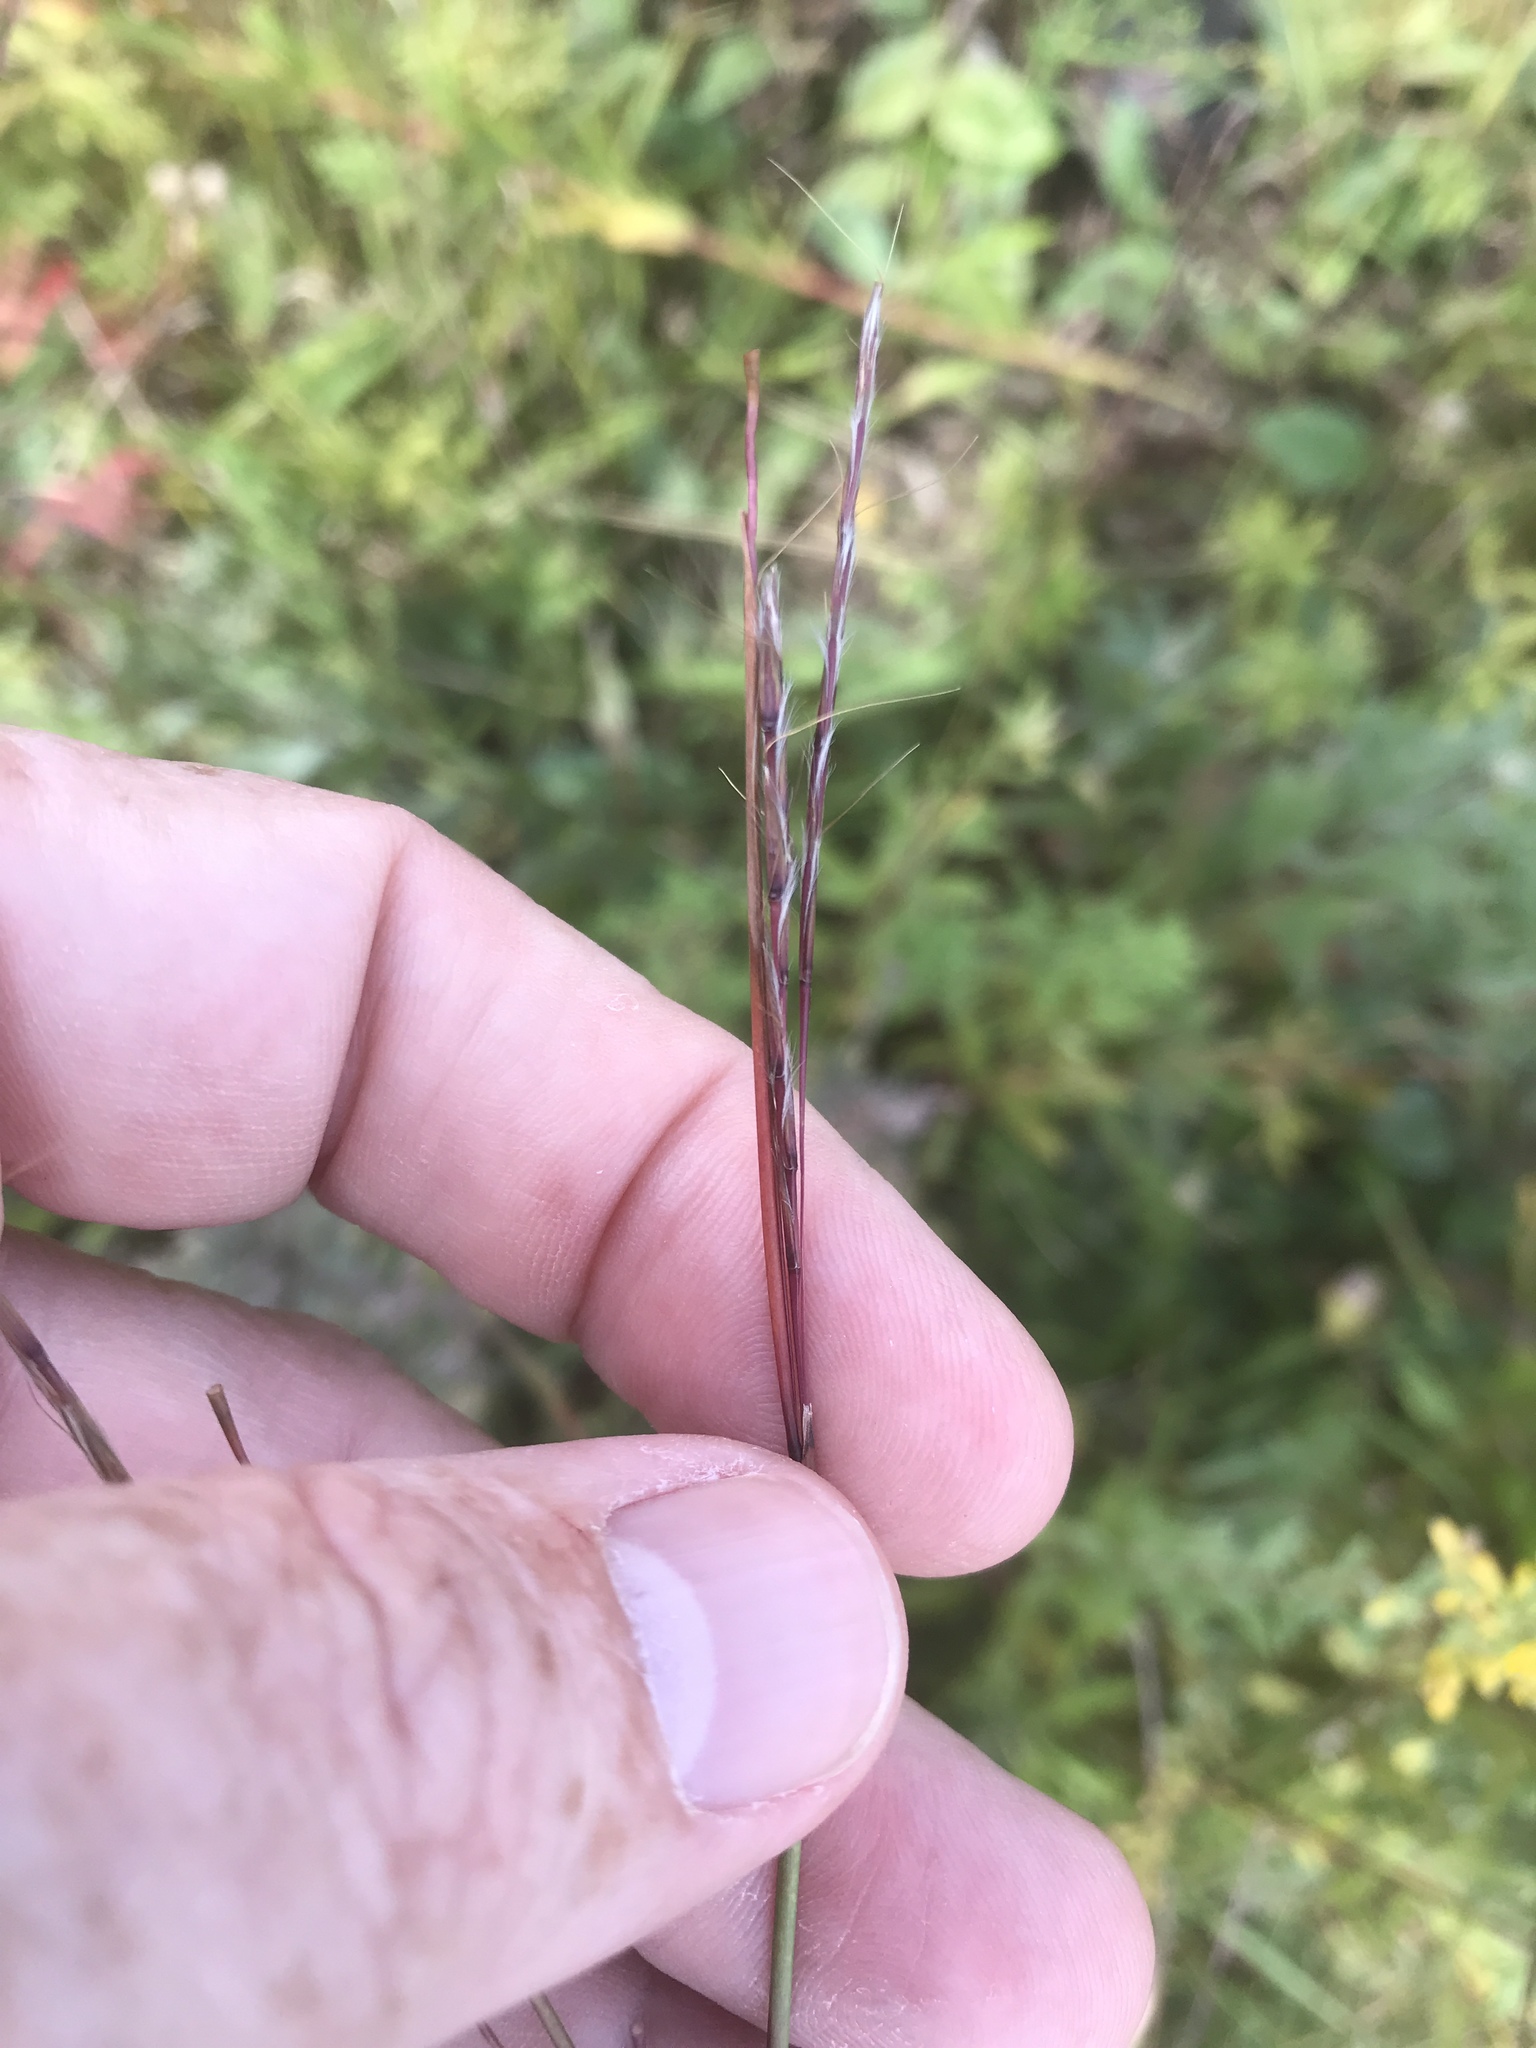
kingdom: Plantae
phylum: Tracheophyta
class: Liliopsida
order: Poales
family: Poaceae
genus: Schizachyrium
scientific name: Schizachyrium scoparium
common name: Little bluestem
